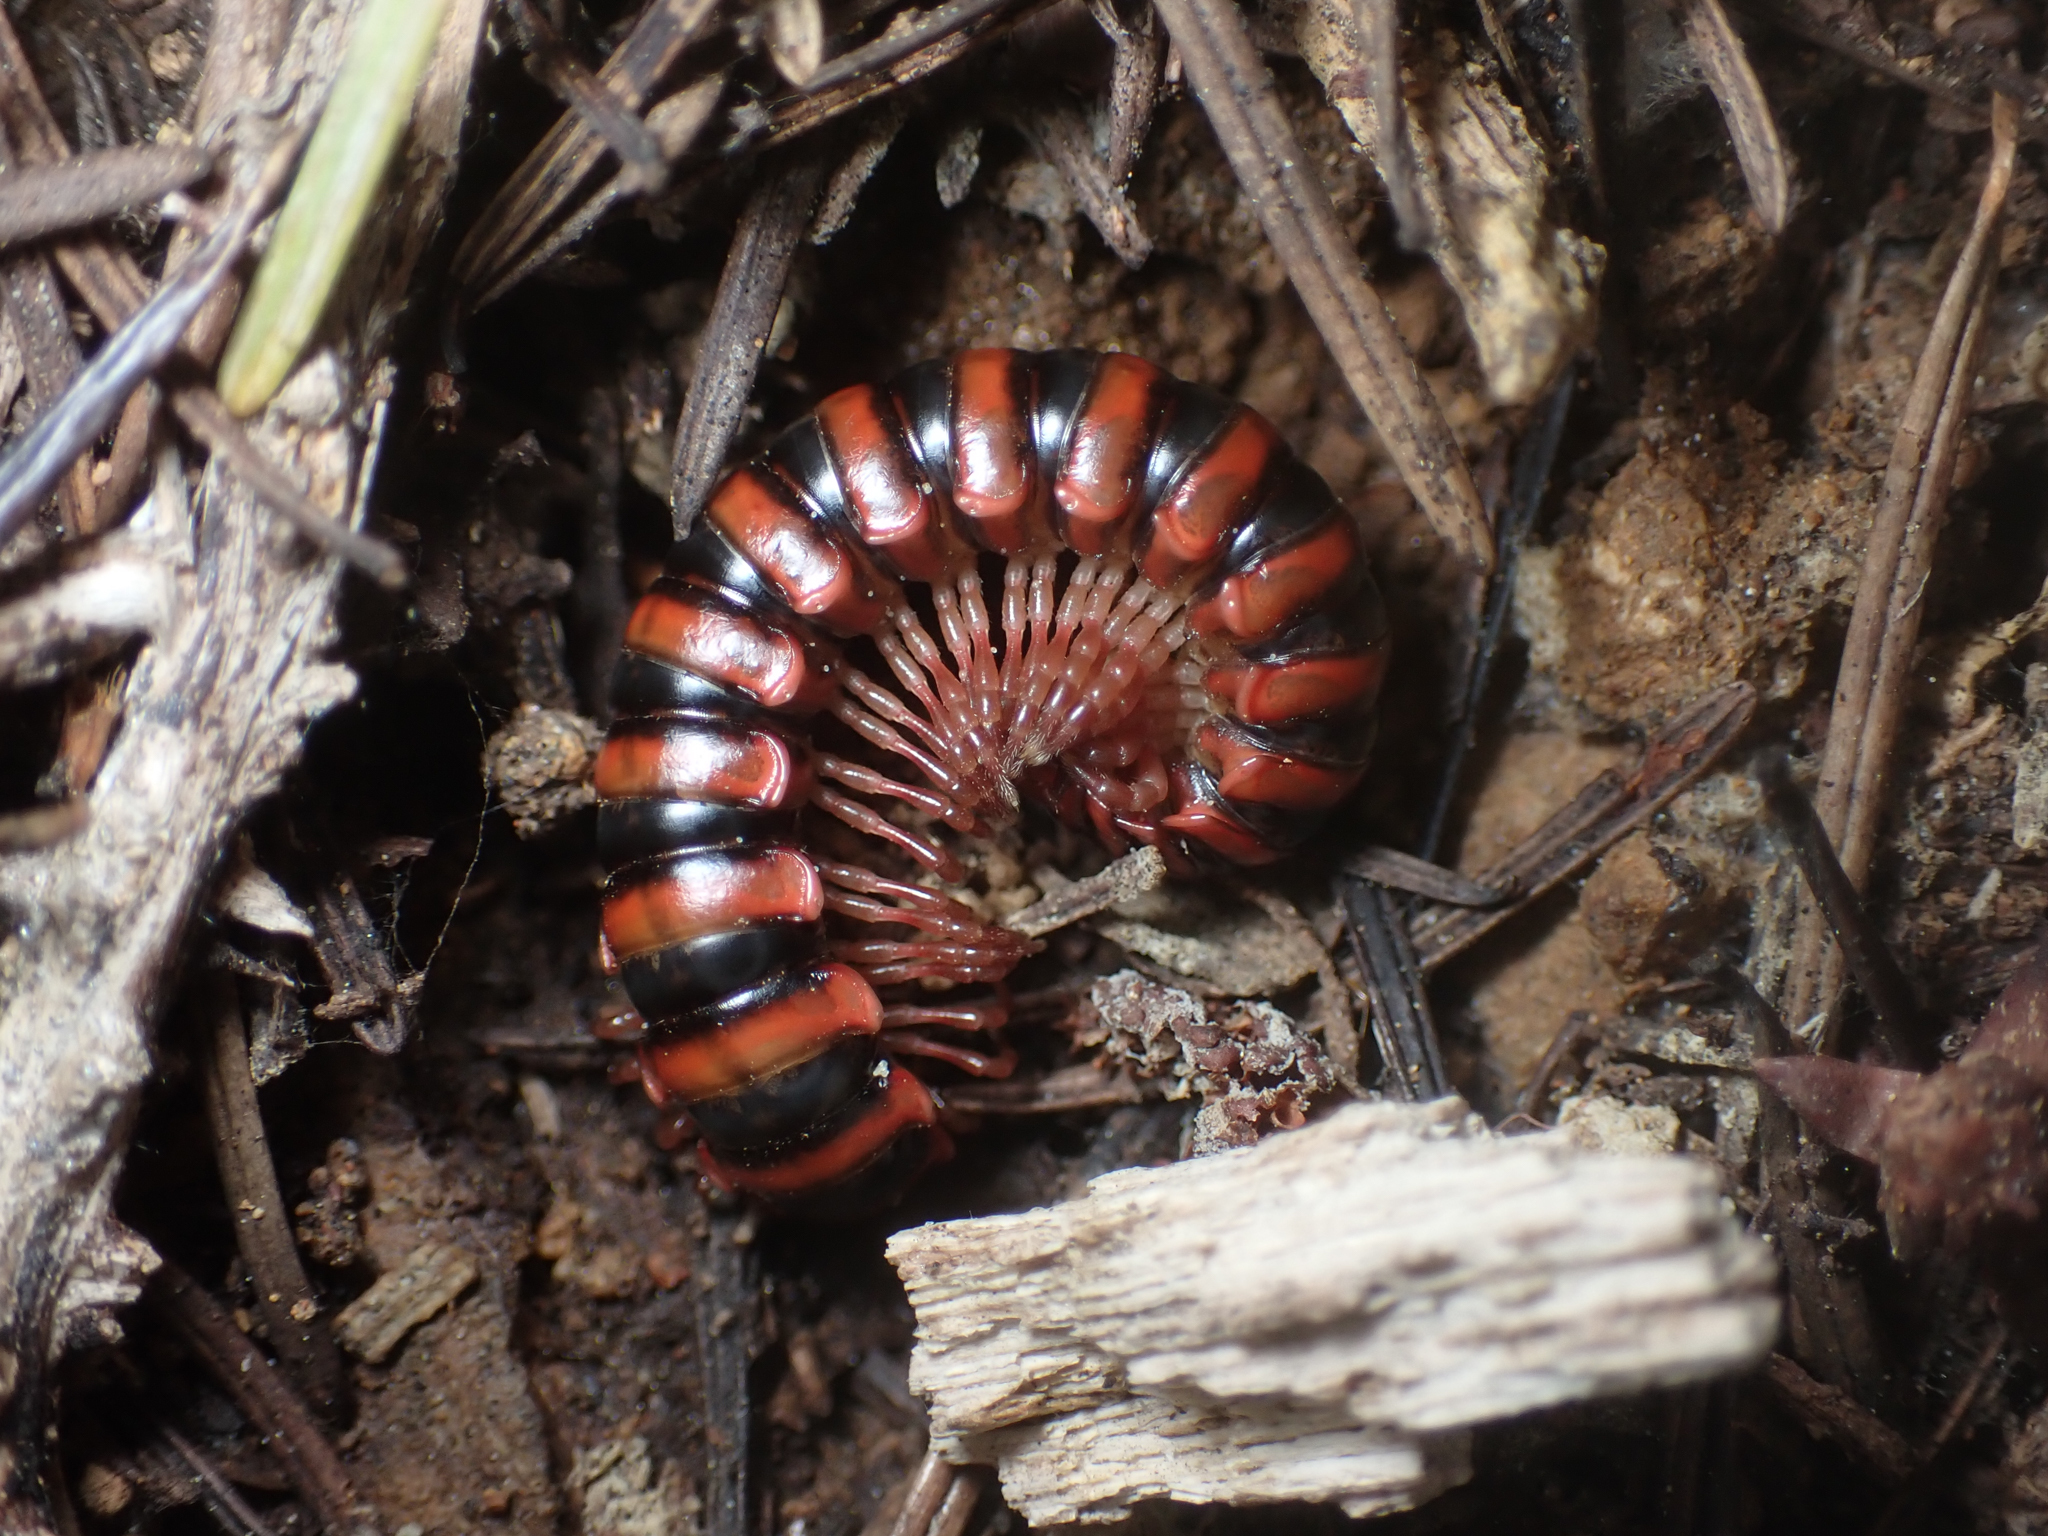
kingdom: Animalia
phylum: Arthropoda
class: Diplopoda
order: Polydesmida
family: Xystodesmidae
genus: Selenocheir
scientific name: Selenocheir sinuata
